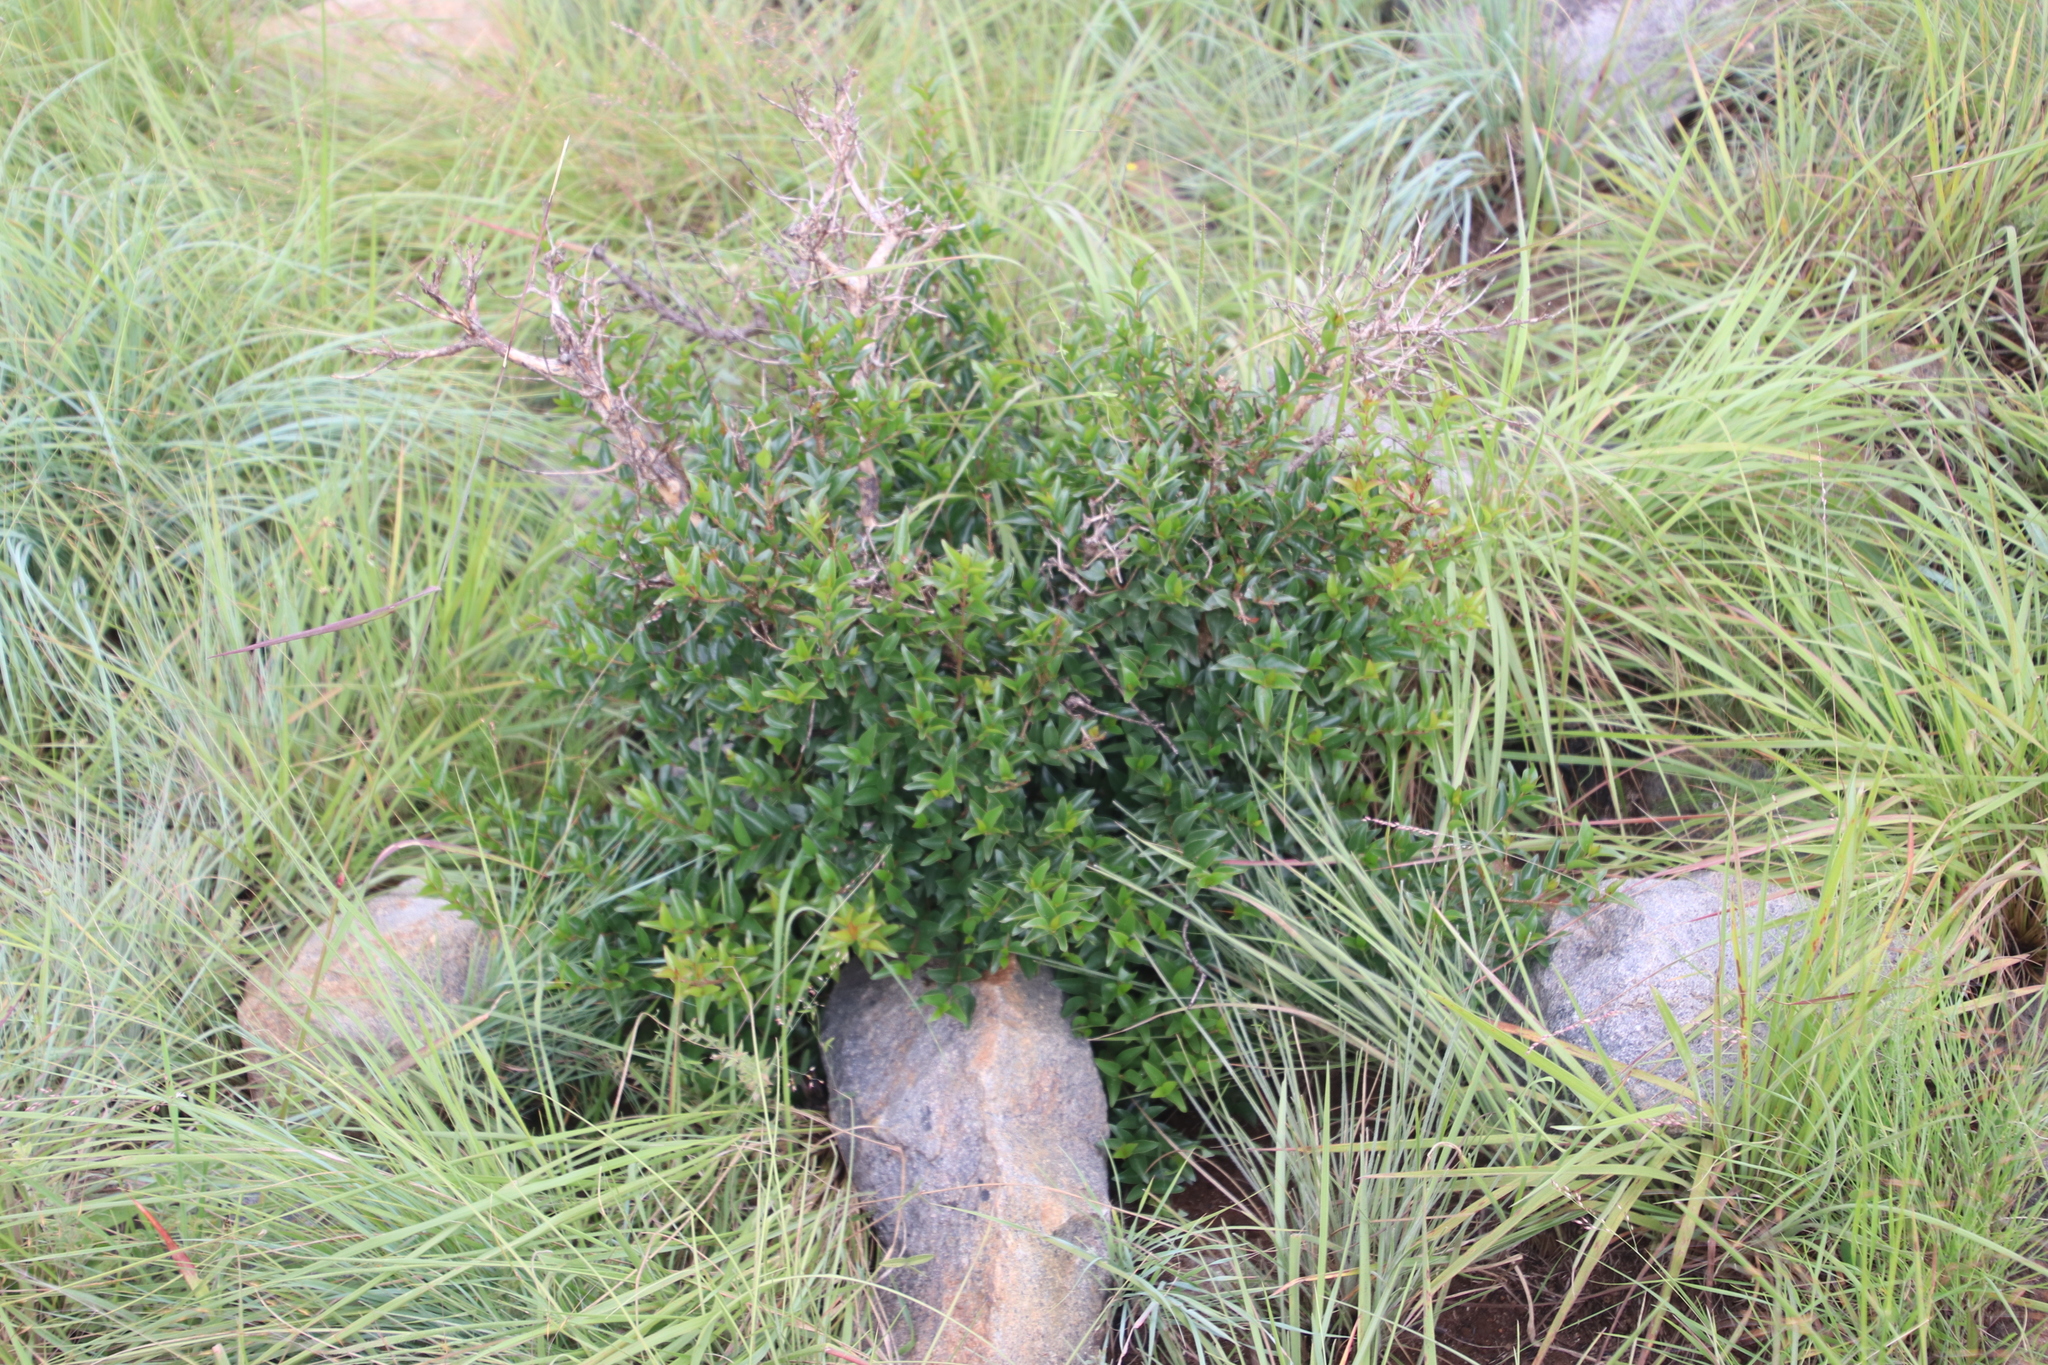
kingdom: Plantae
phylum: Tracheophyta
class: Magnoliopsida
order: Gentianales
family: Rubiaceae
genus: Cephalanthus
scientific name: Cephalanthus natalensis
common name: Strawberry bush
